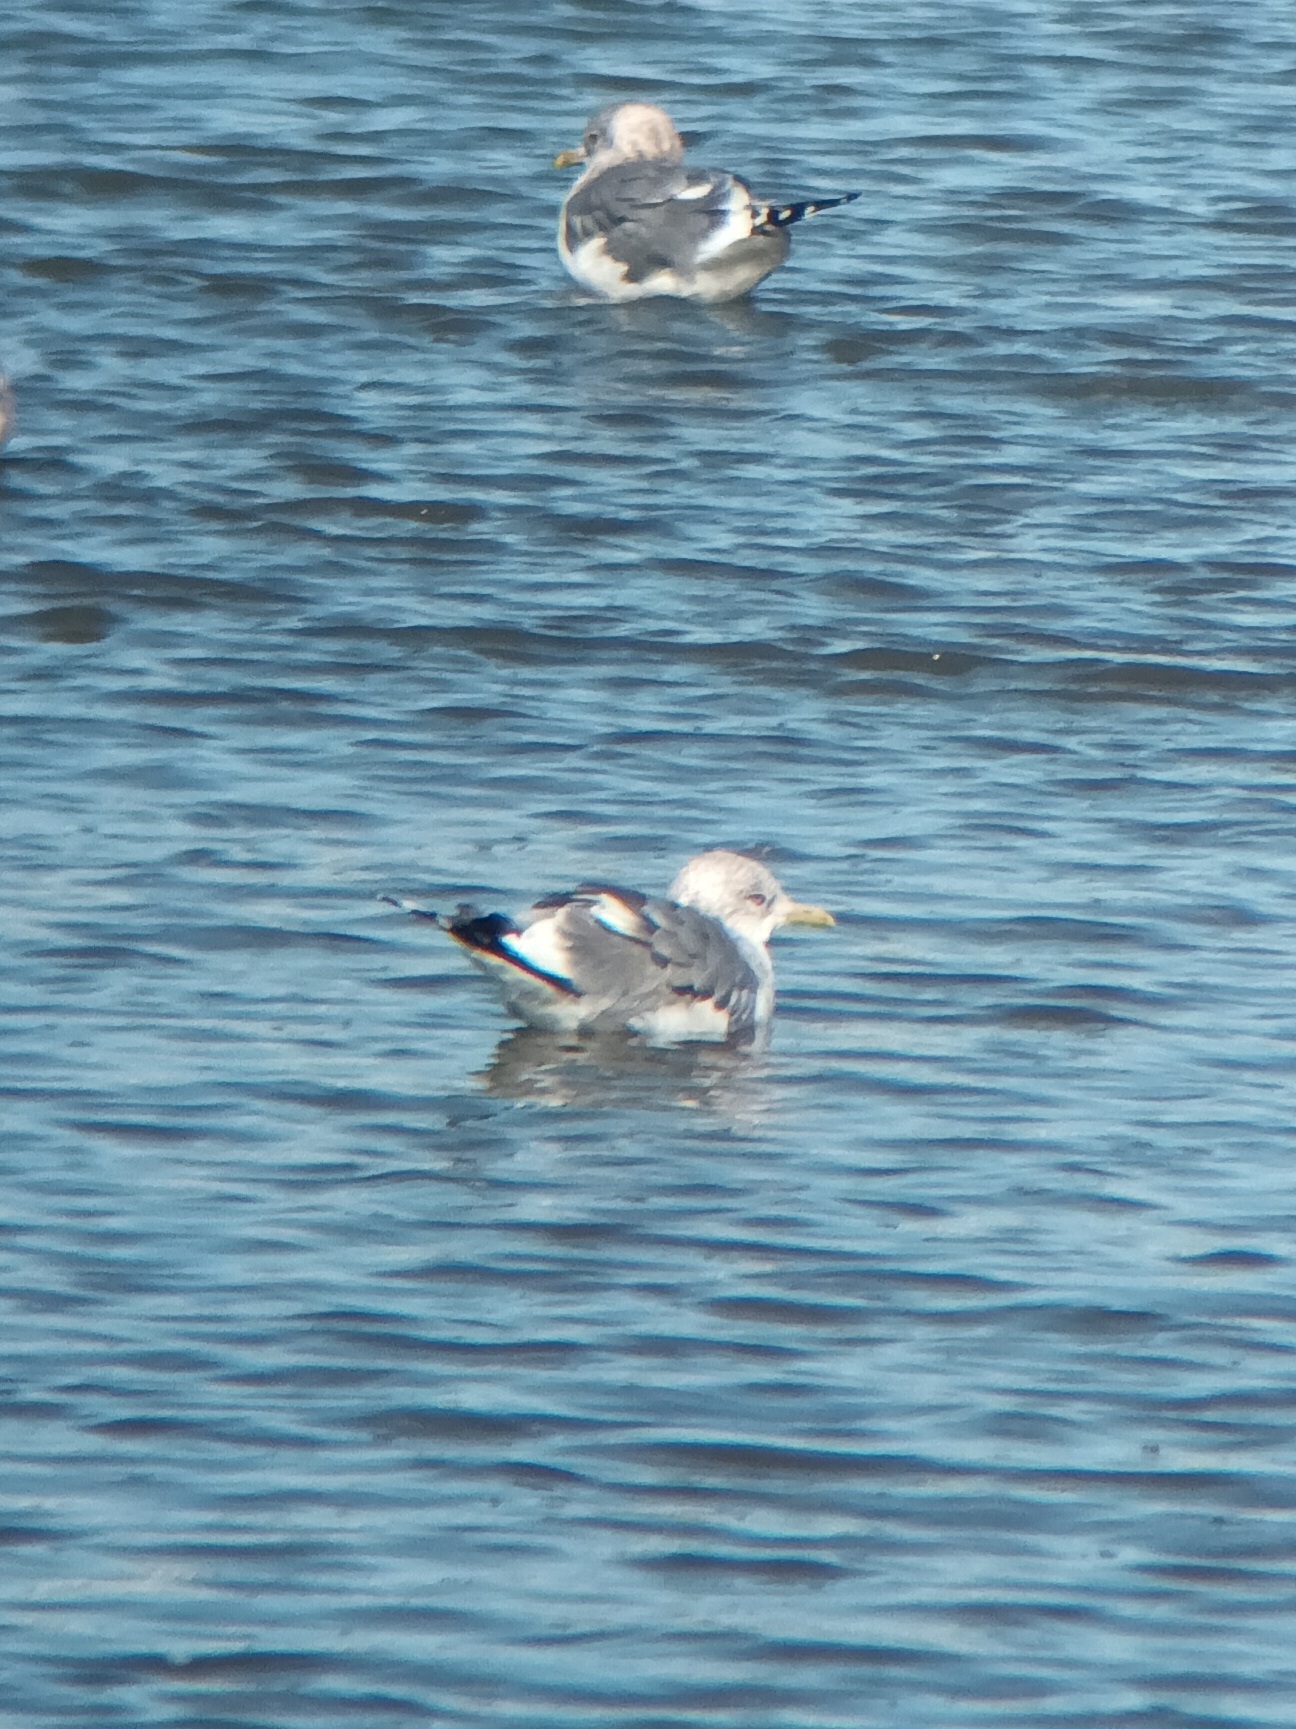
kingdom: Animalia
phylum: Chordata
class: Aves
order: Charadriiformes
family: Laridae
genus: Larus
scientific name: Larus brachyrhynchus
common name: Short-billed gull
